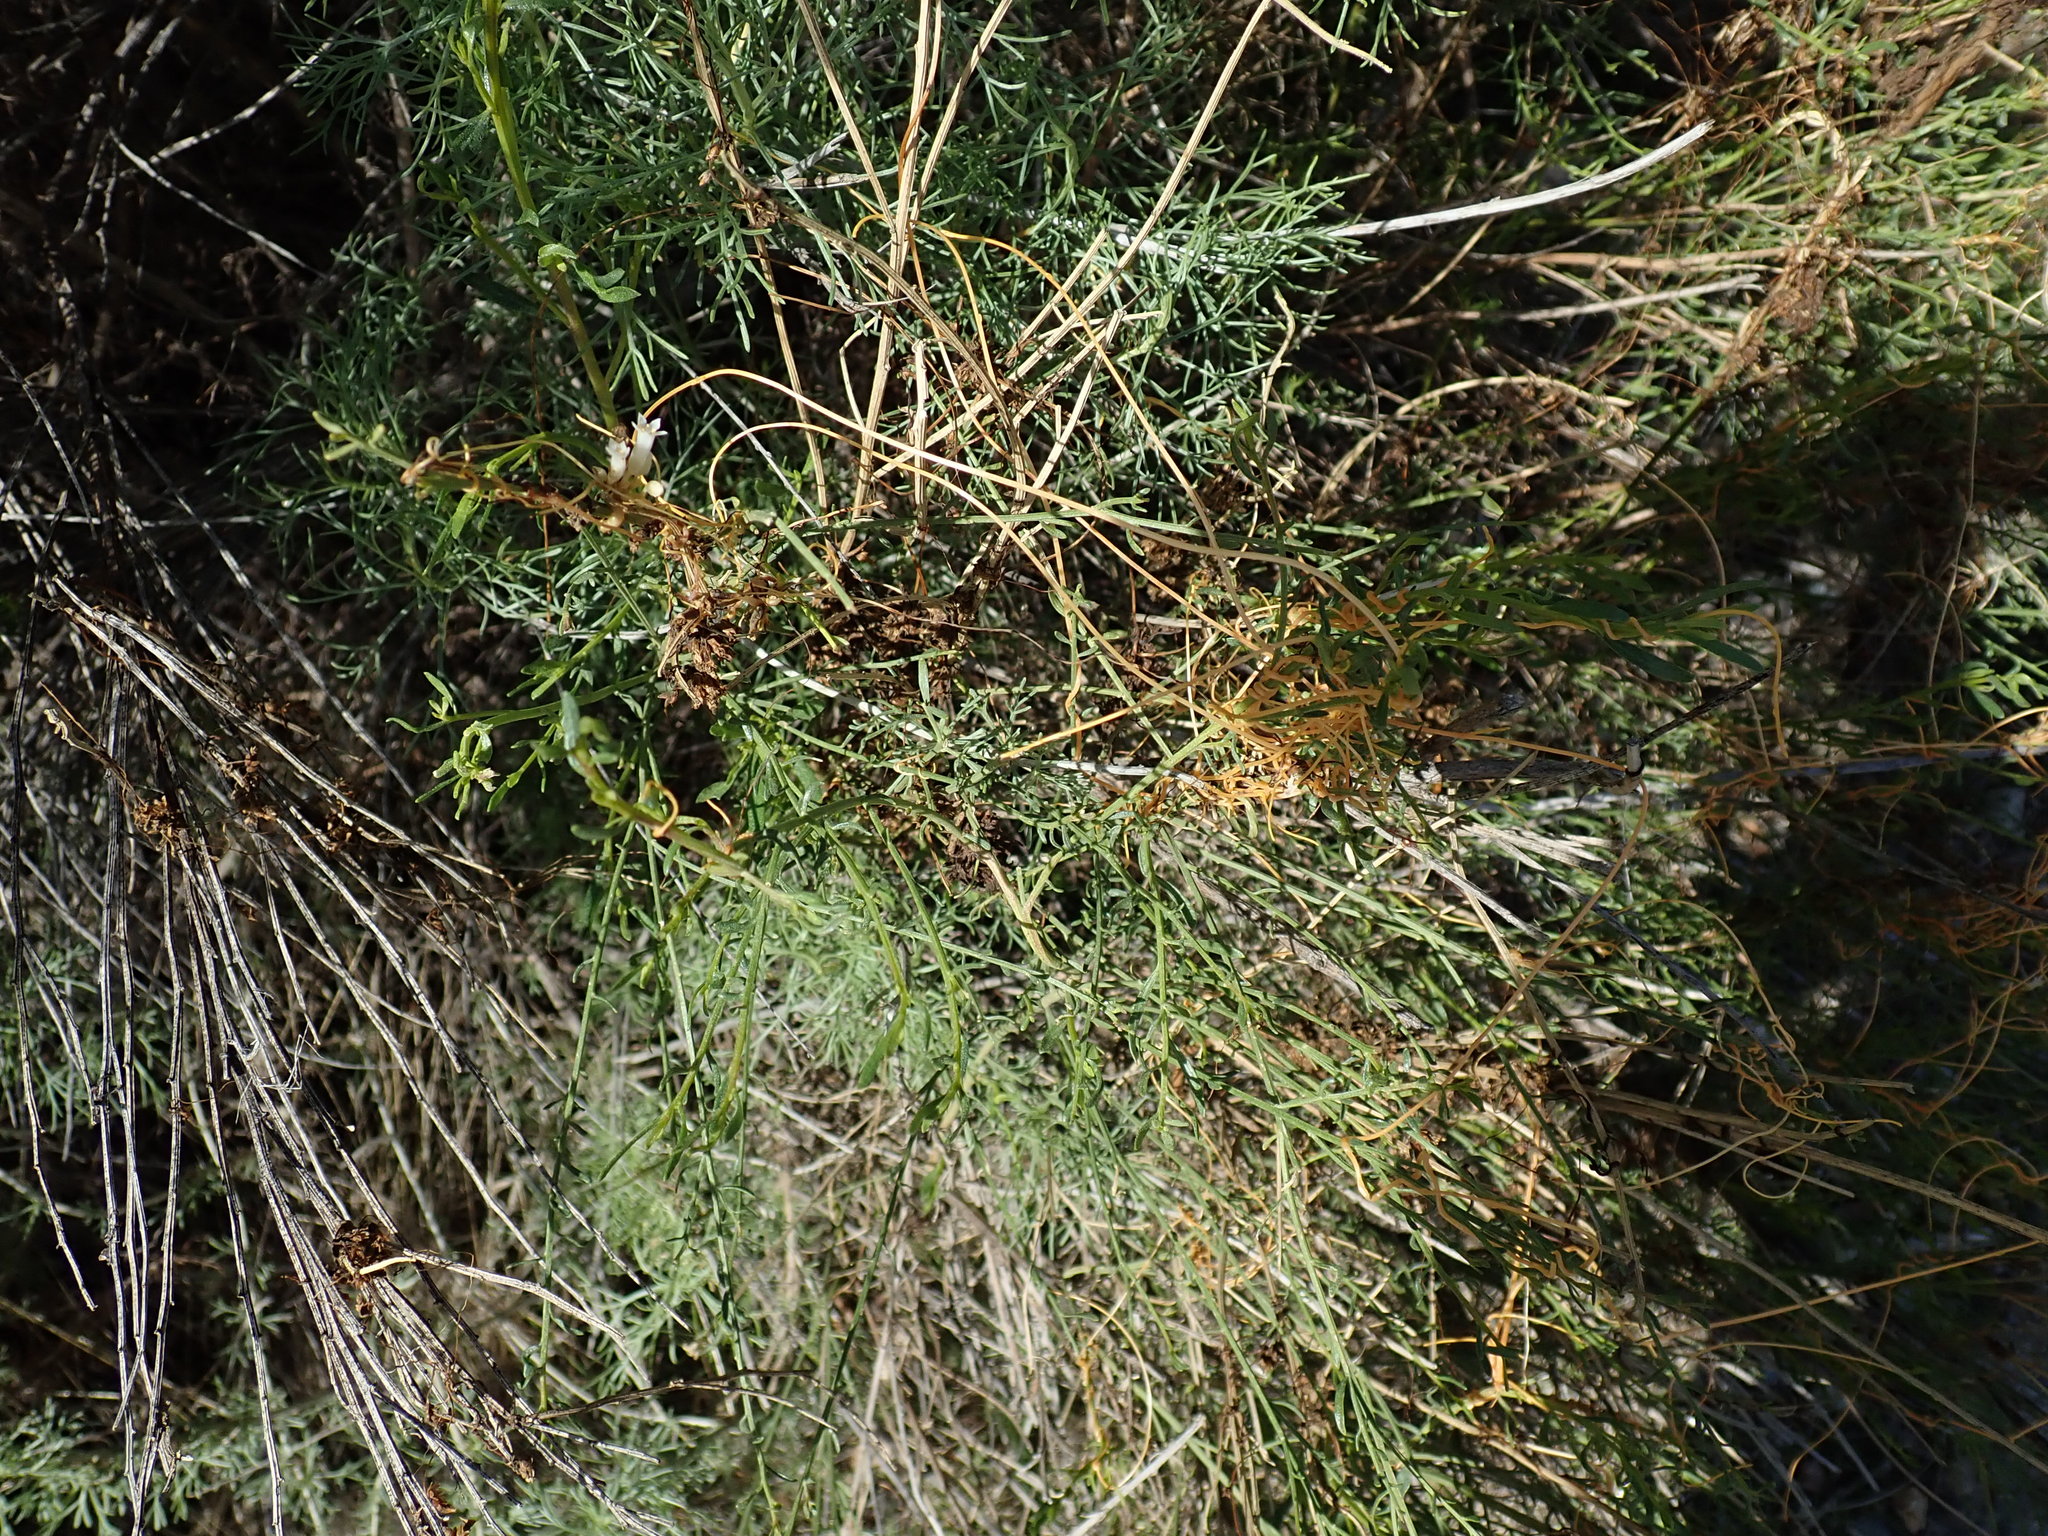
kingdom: Plantae
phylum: Tracheophyta
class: Magnoliopsida
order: Solanales
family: Convolvulaceae
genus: Cuscuta
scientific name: Cuscuta subinclusa
